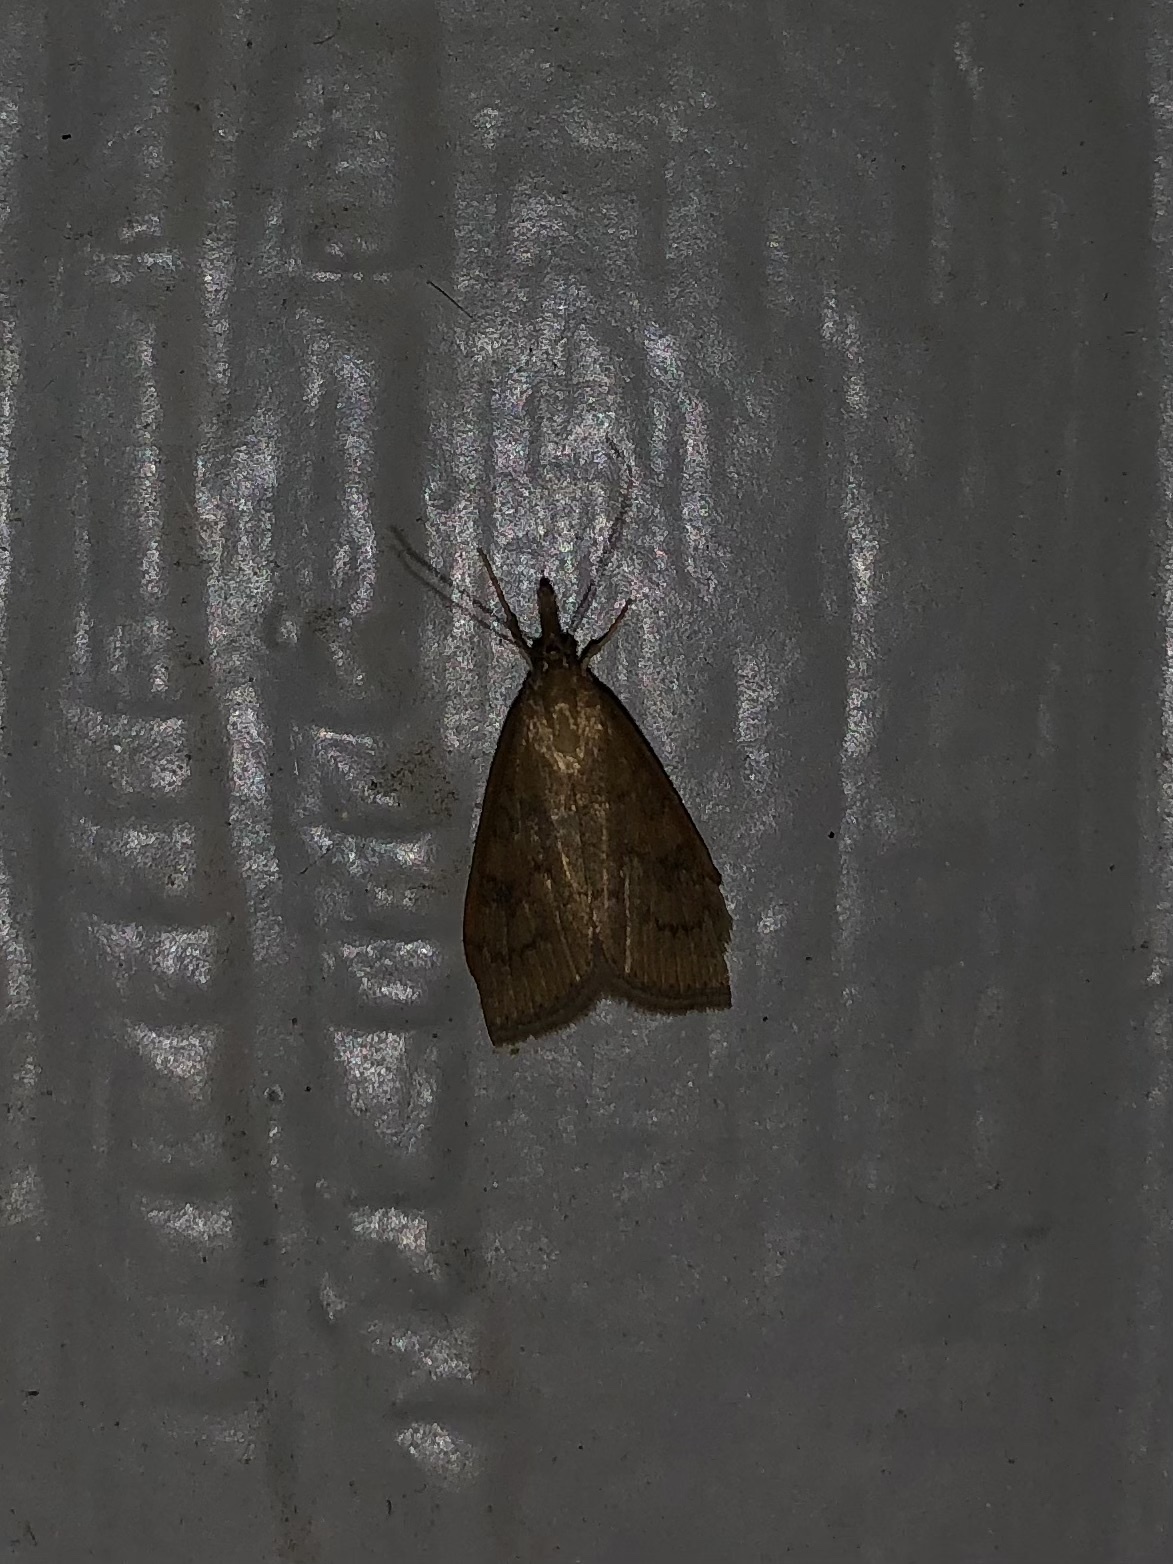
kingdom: Animalia
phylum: Arthropoda
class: Insecta
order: Lepidoptera
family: Crambidae
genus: Udea
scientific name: Udea rubigalis
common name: Celery leaftier moth
